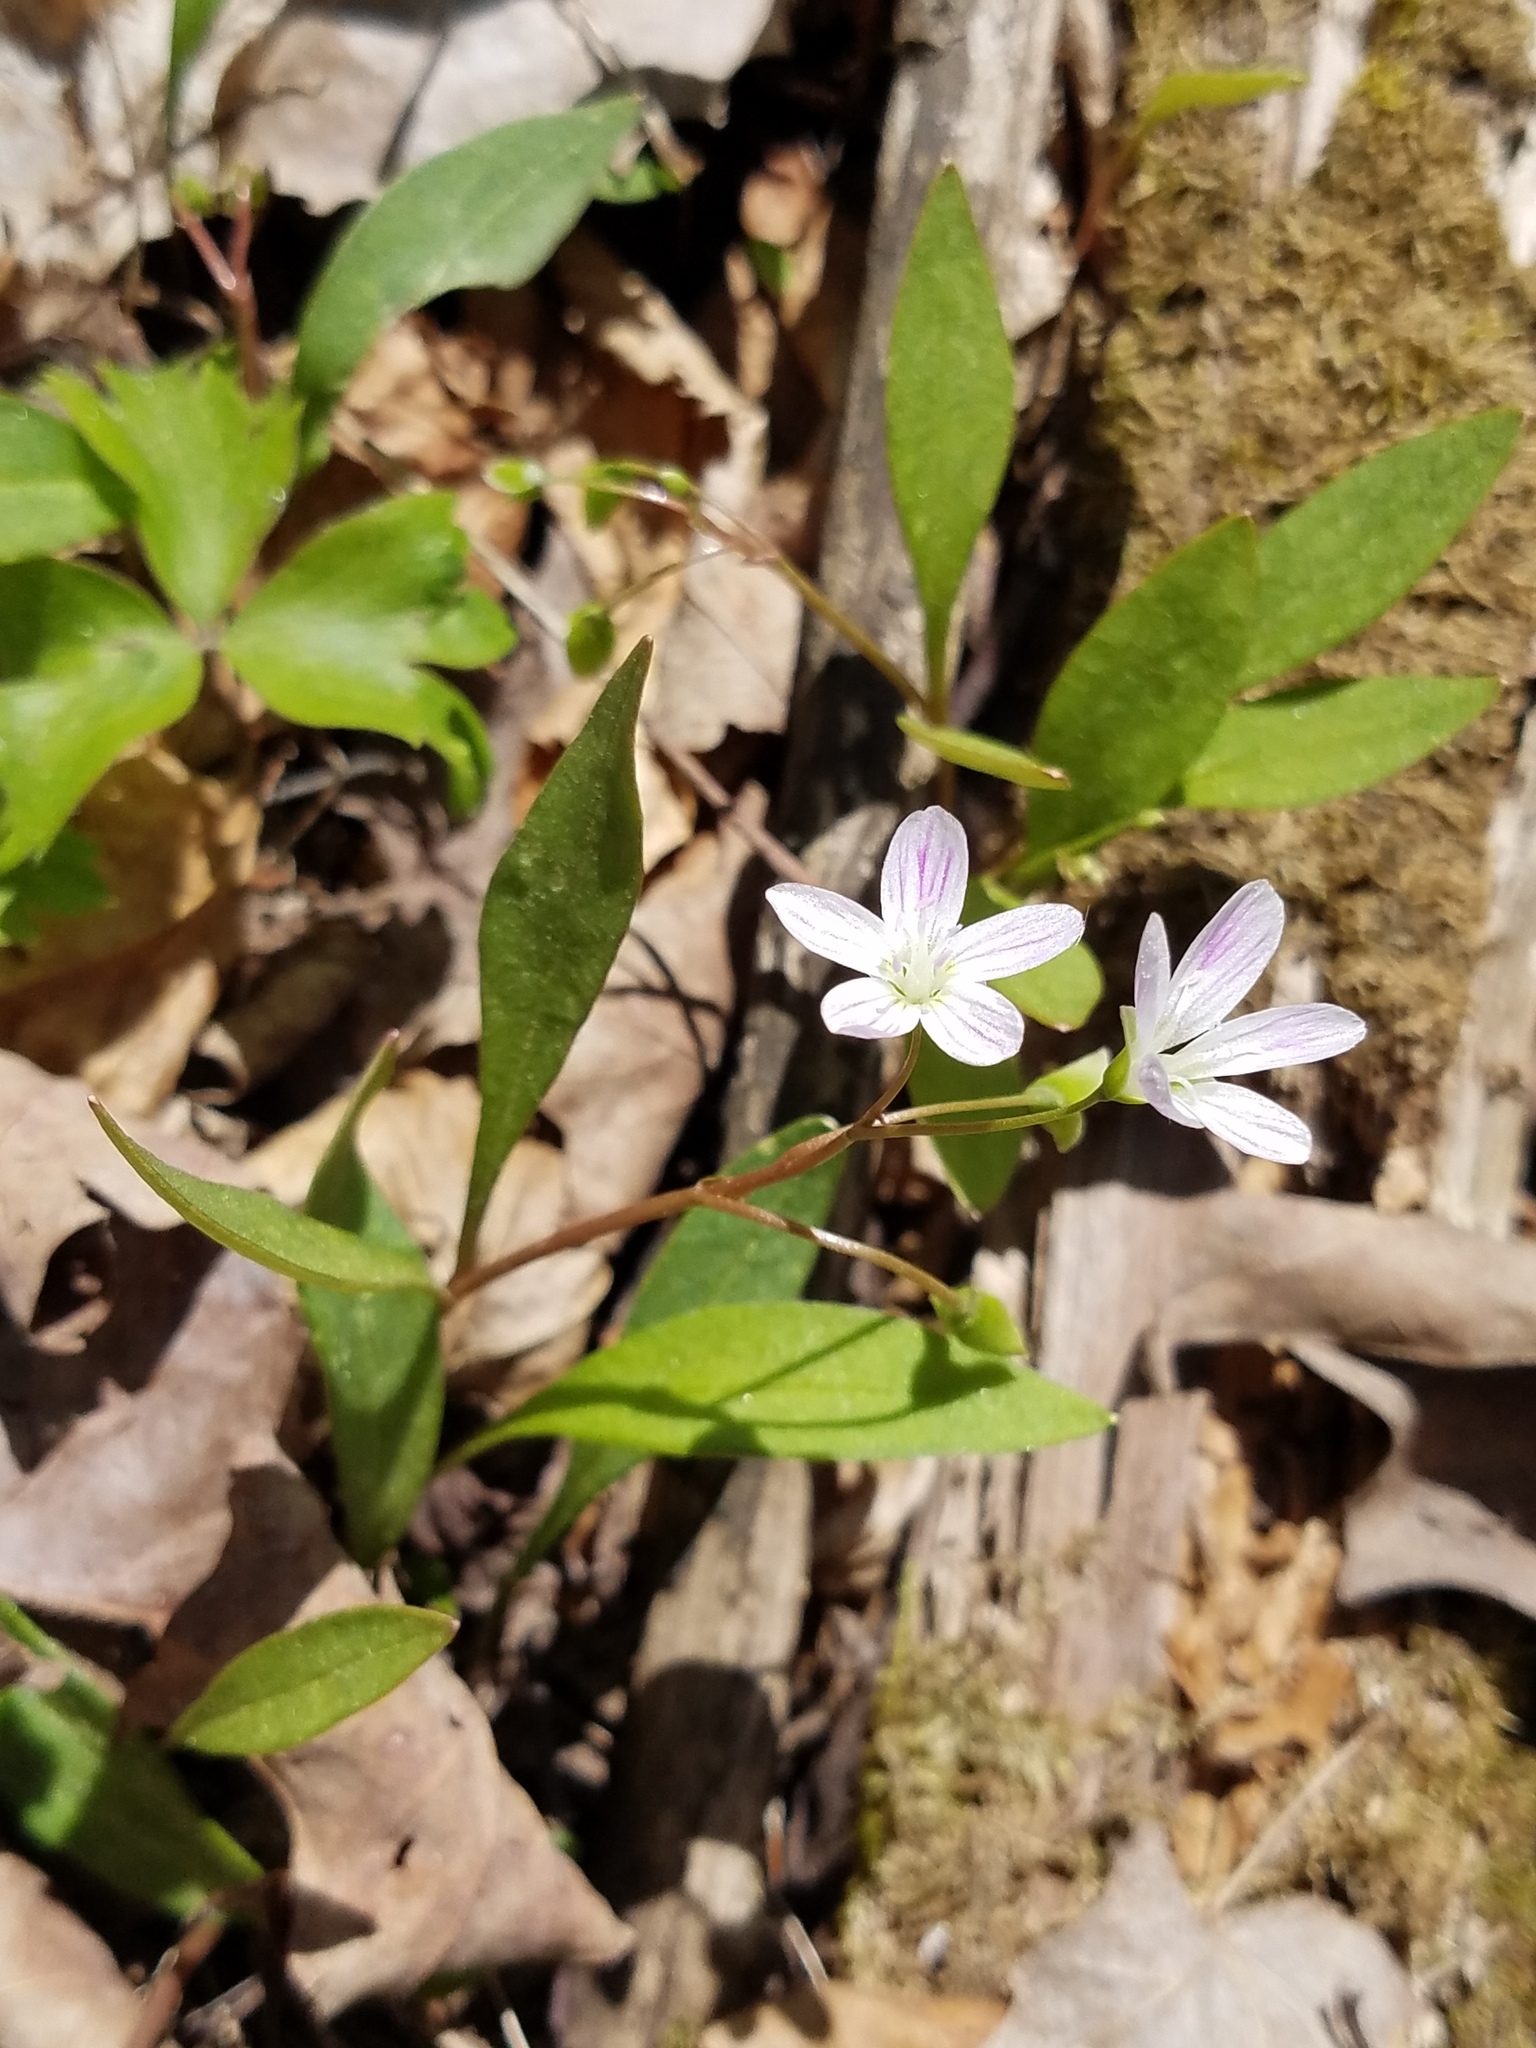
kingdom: Plantae
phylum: Tracheophyta
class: Magnoliopsida
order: Caryophyllales
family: Montiaceae
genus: Claytonia
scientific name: Claytonia caroliniana
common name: Carolina spring beauty
